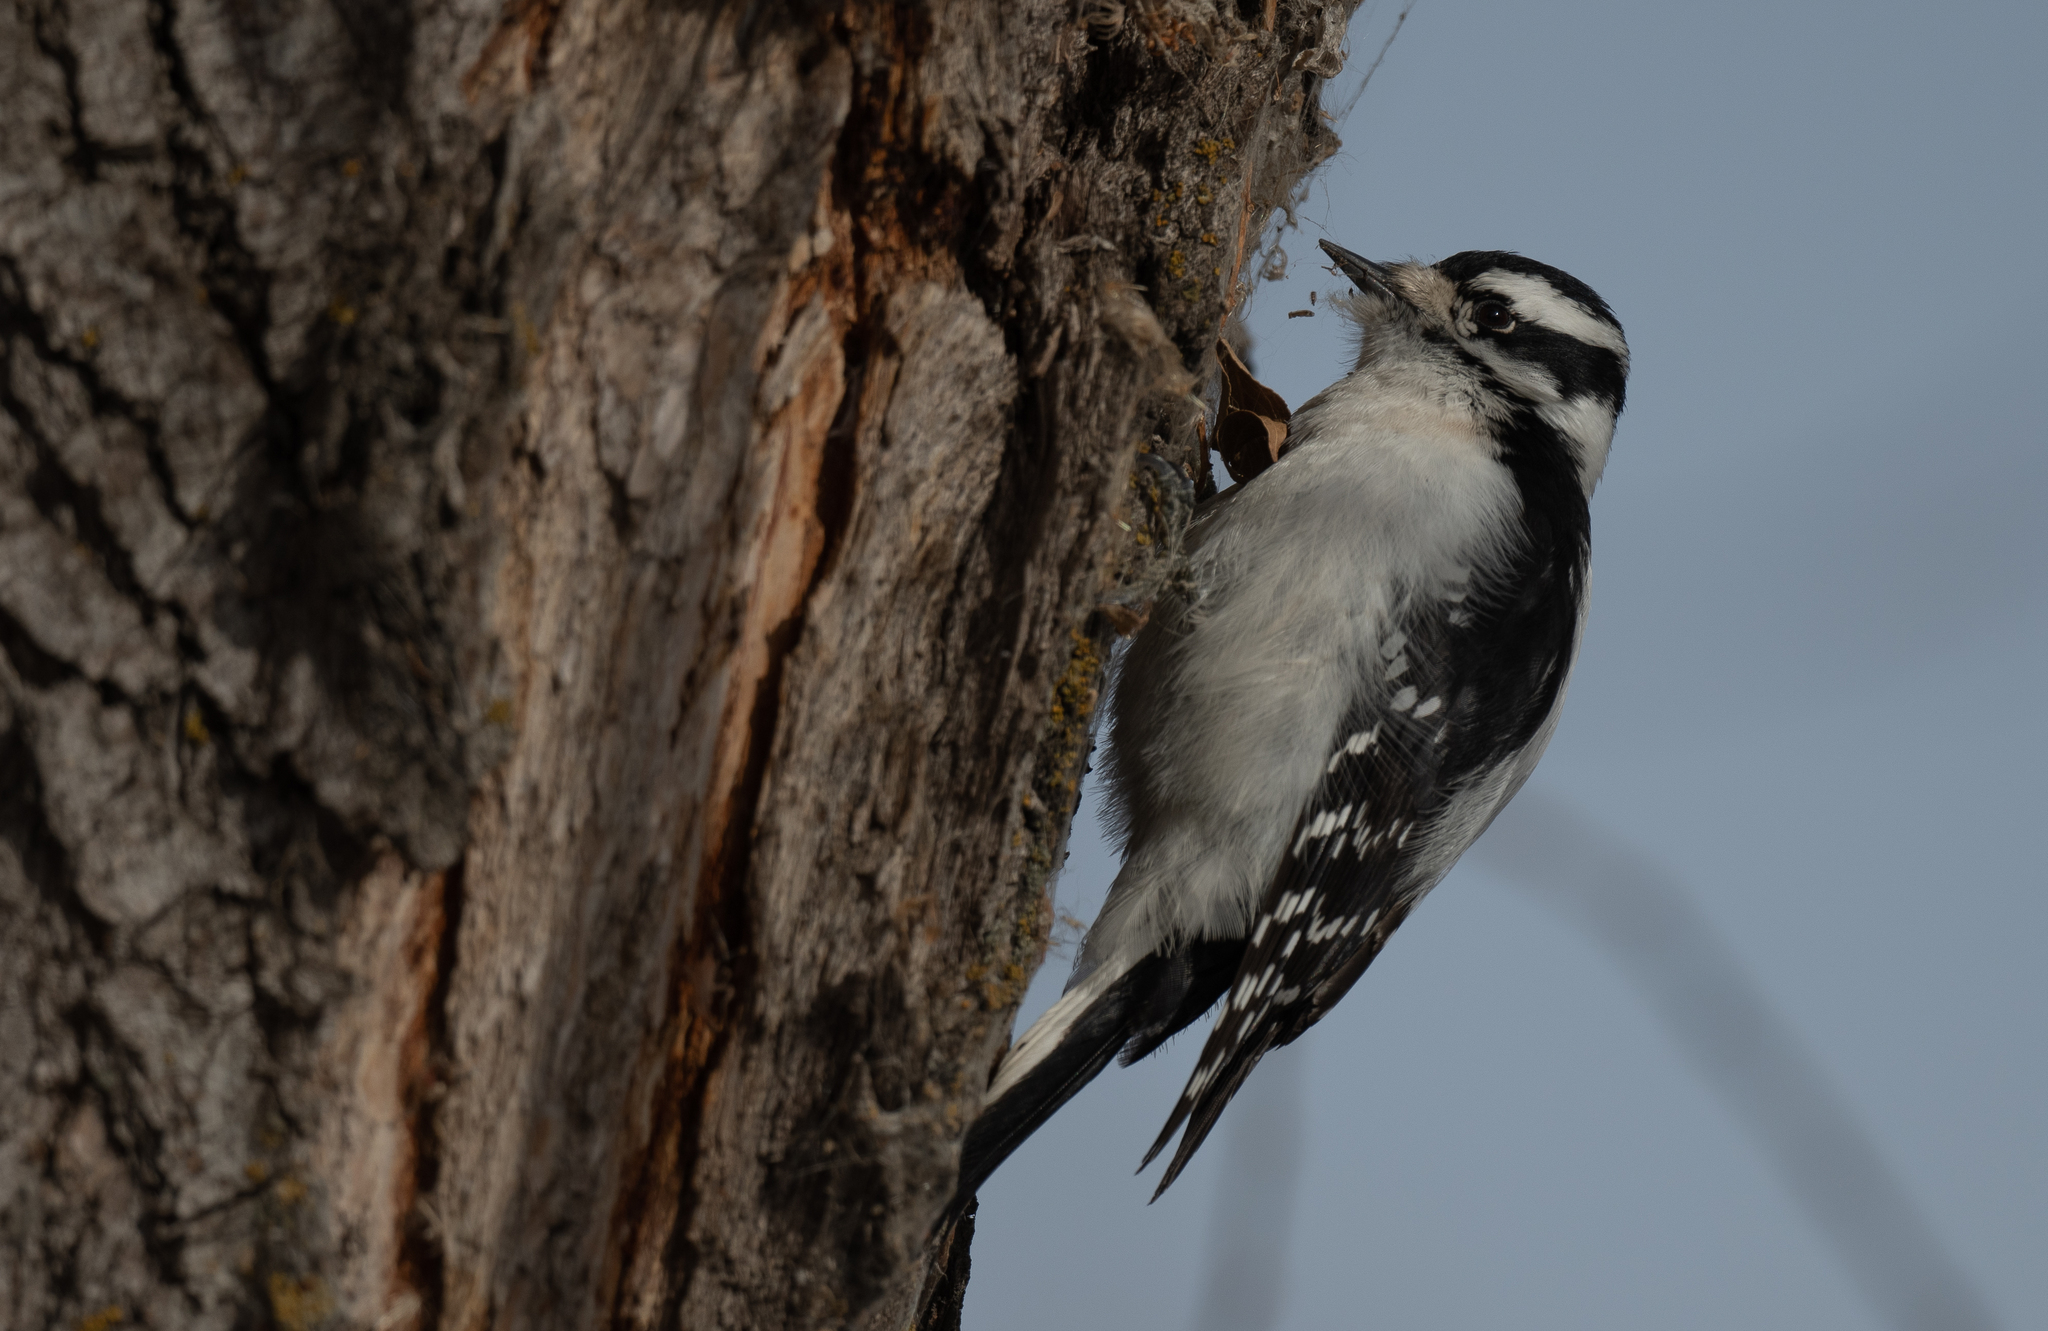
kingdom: Animalia
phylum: Chordata
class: Aves
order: Piciformes
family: Picidae
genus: Dryobates
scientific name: Dryobates pubescens
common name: Downy woodpecker
